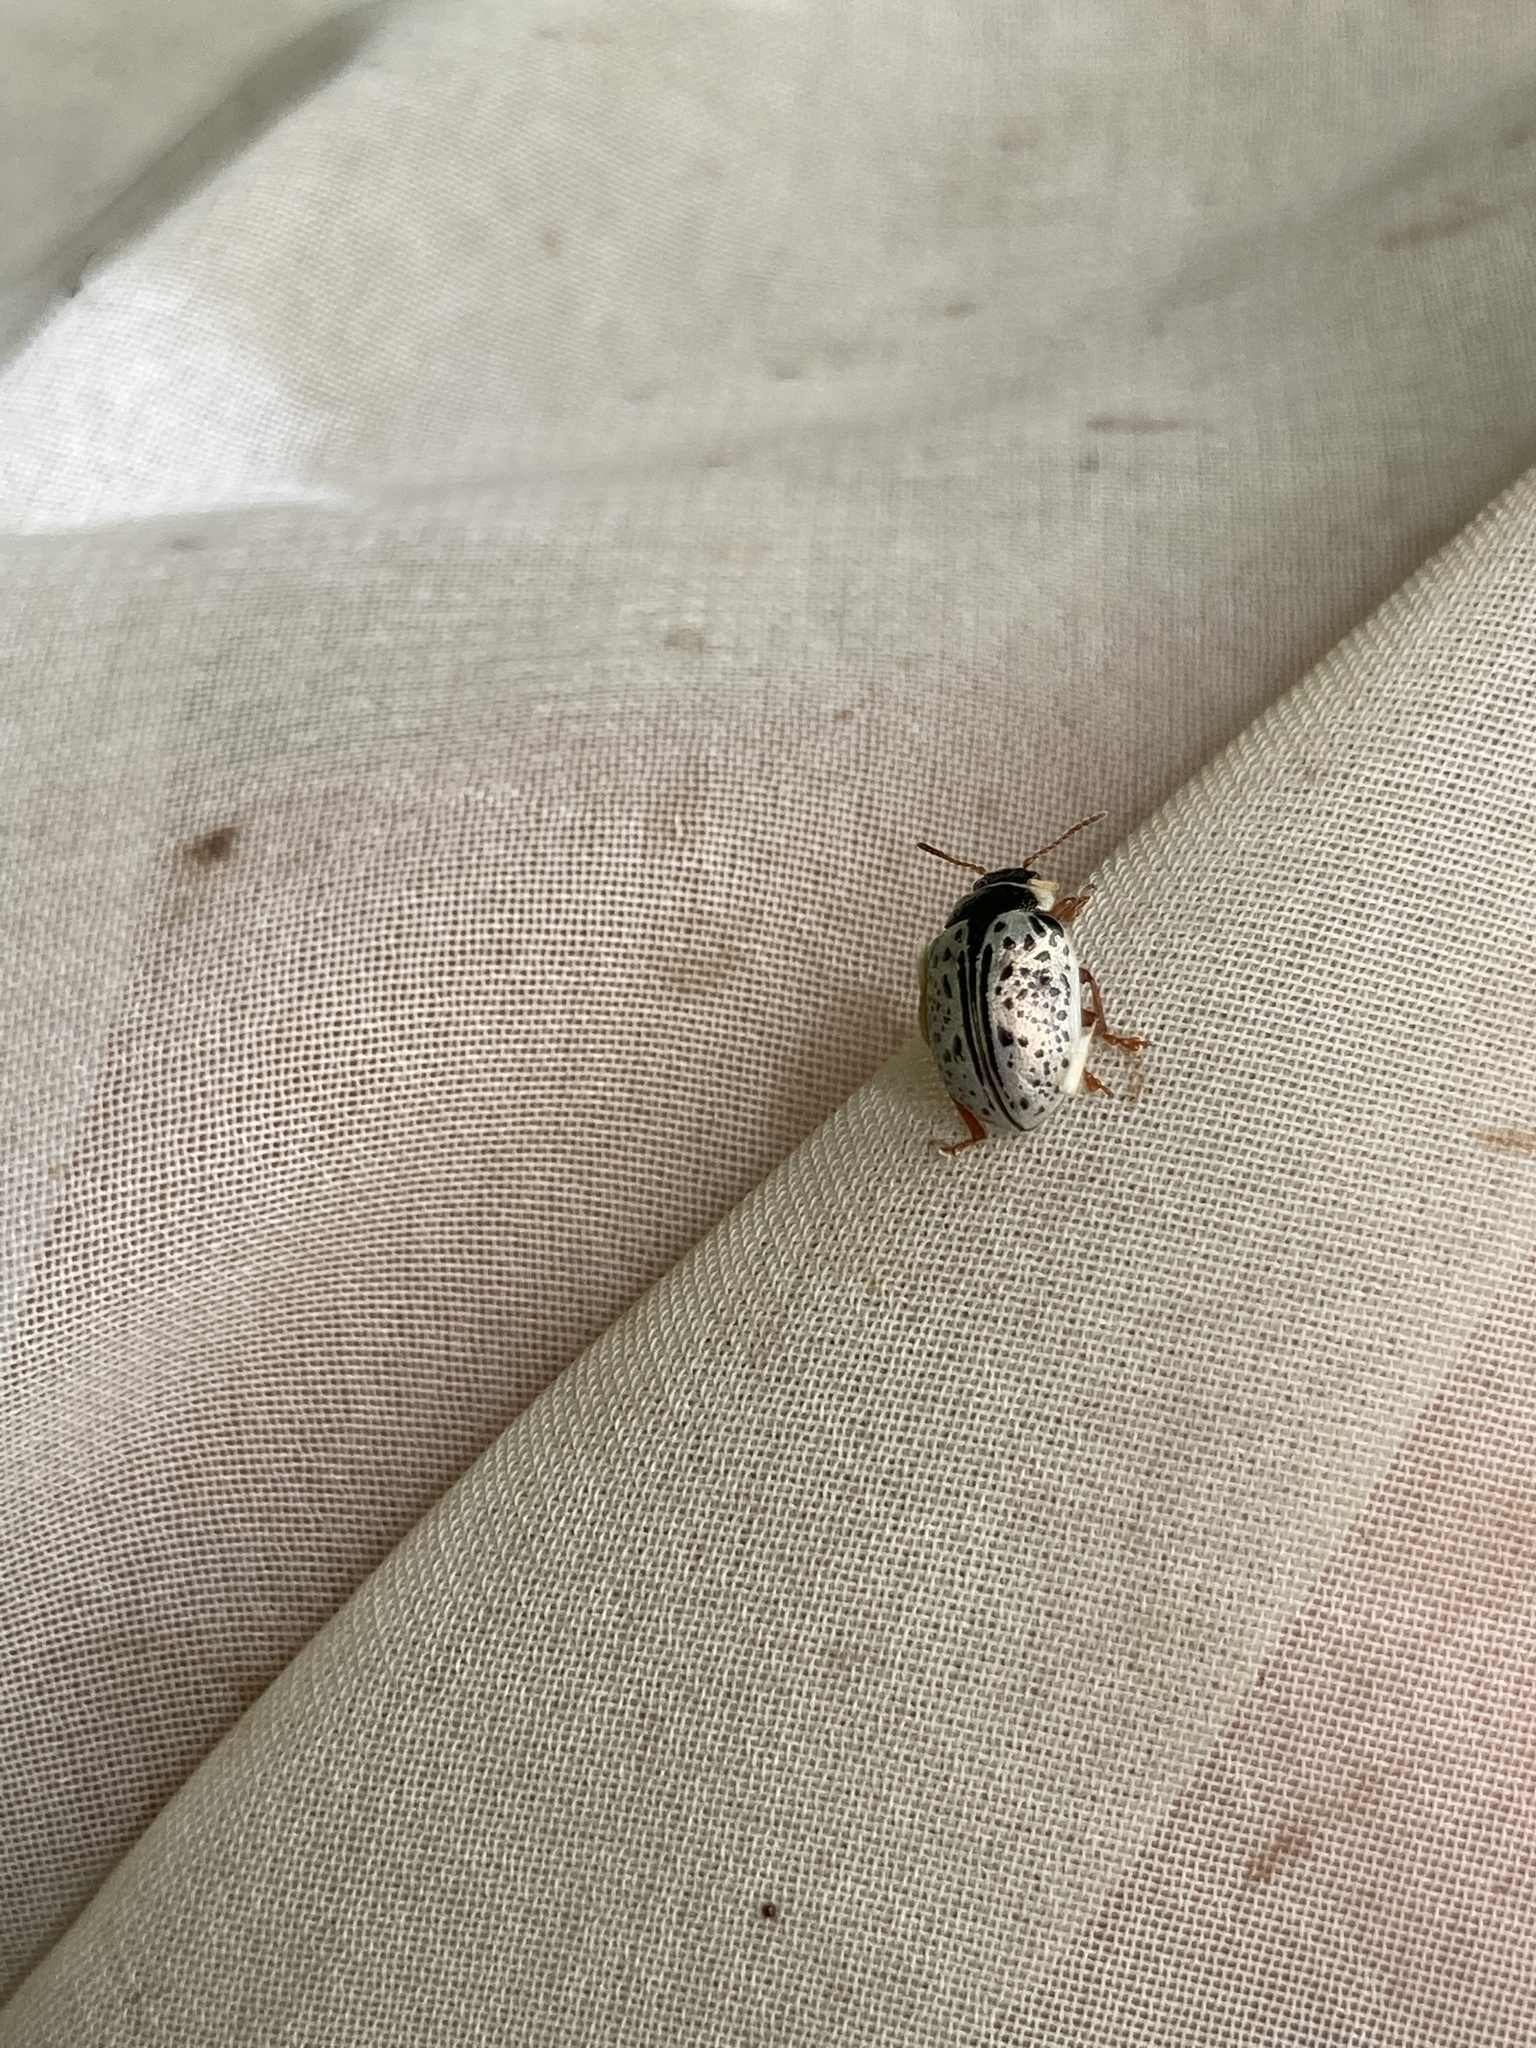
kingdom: Animalia
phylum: Arthropoda
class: Insecta
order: Coleoptera
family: Chrysomelidae
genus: Calligrapha
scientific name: Calligrapha multipunctata
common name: Common willow calligrapher beetle
